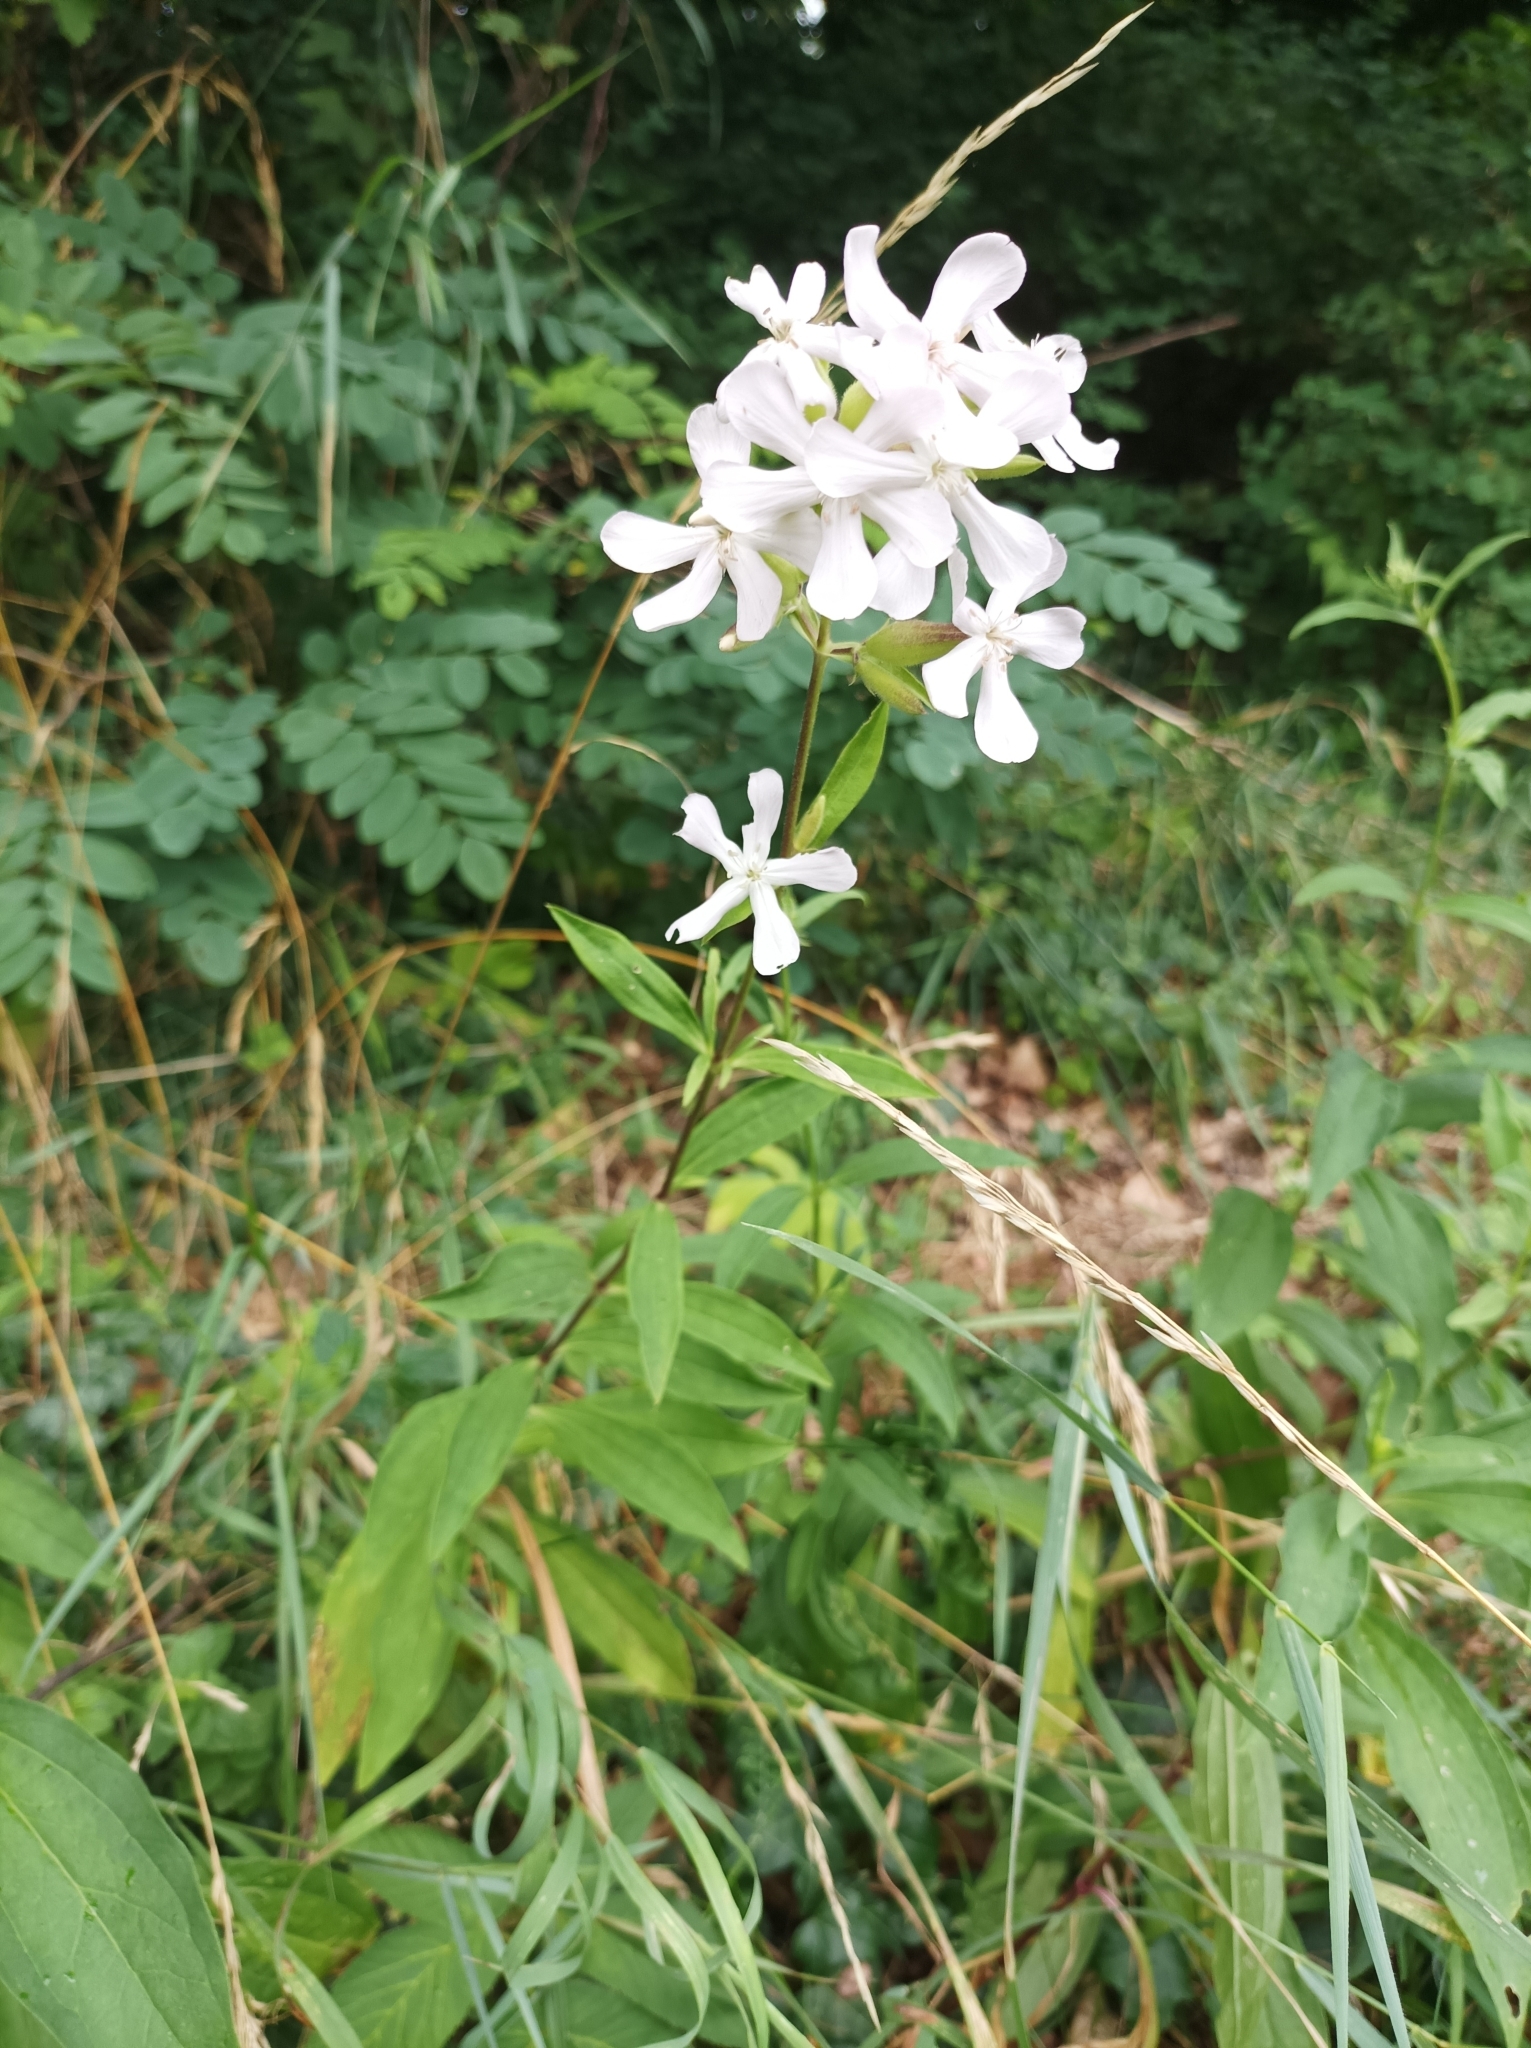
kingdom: Plantae
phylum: Tracheophyta
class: Magnoliopsida
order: Caryophyllales
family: Caryophyllaceae
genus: Saponaria
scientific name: Saponaria officinalis
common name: Soapwort
